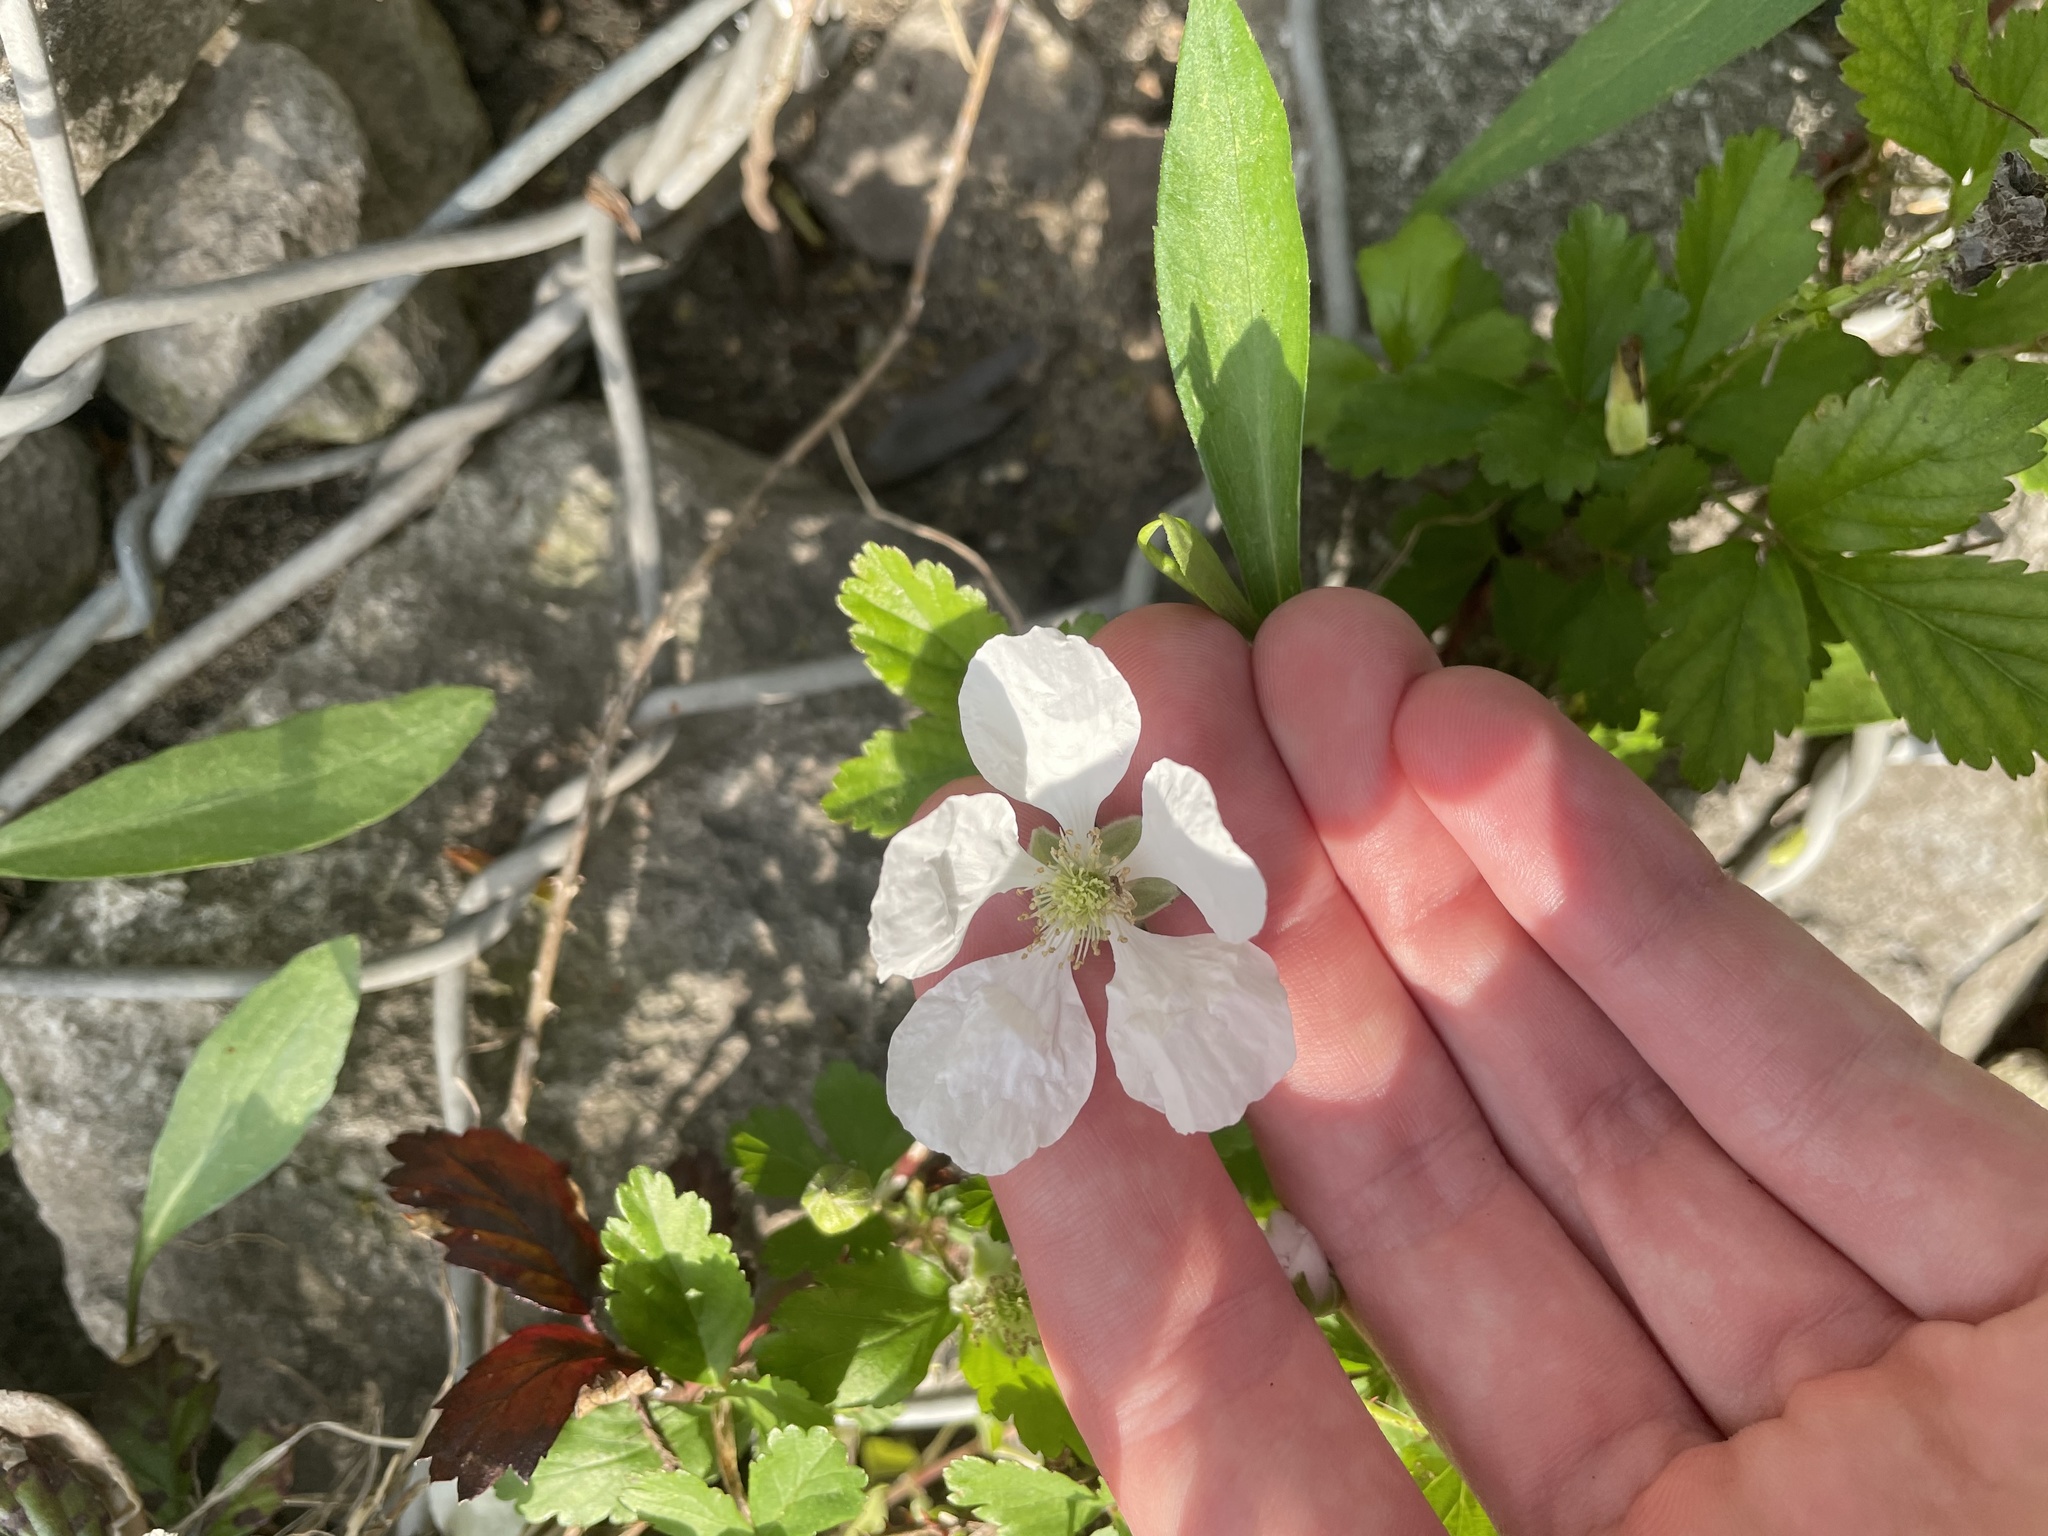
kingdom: Plantae
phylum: Tracheophyta
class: Magnoliopsida
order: Rosales
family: Rosaceae
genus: Rubus
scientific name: Rubus trivialis
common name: Southern dewberry
